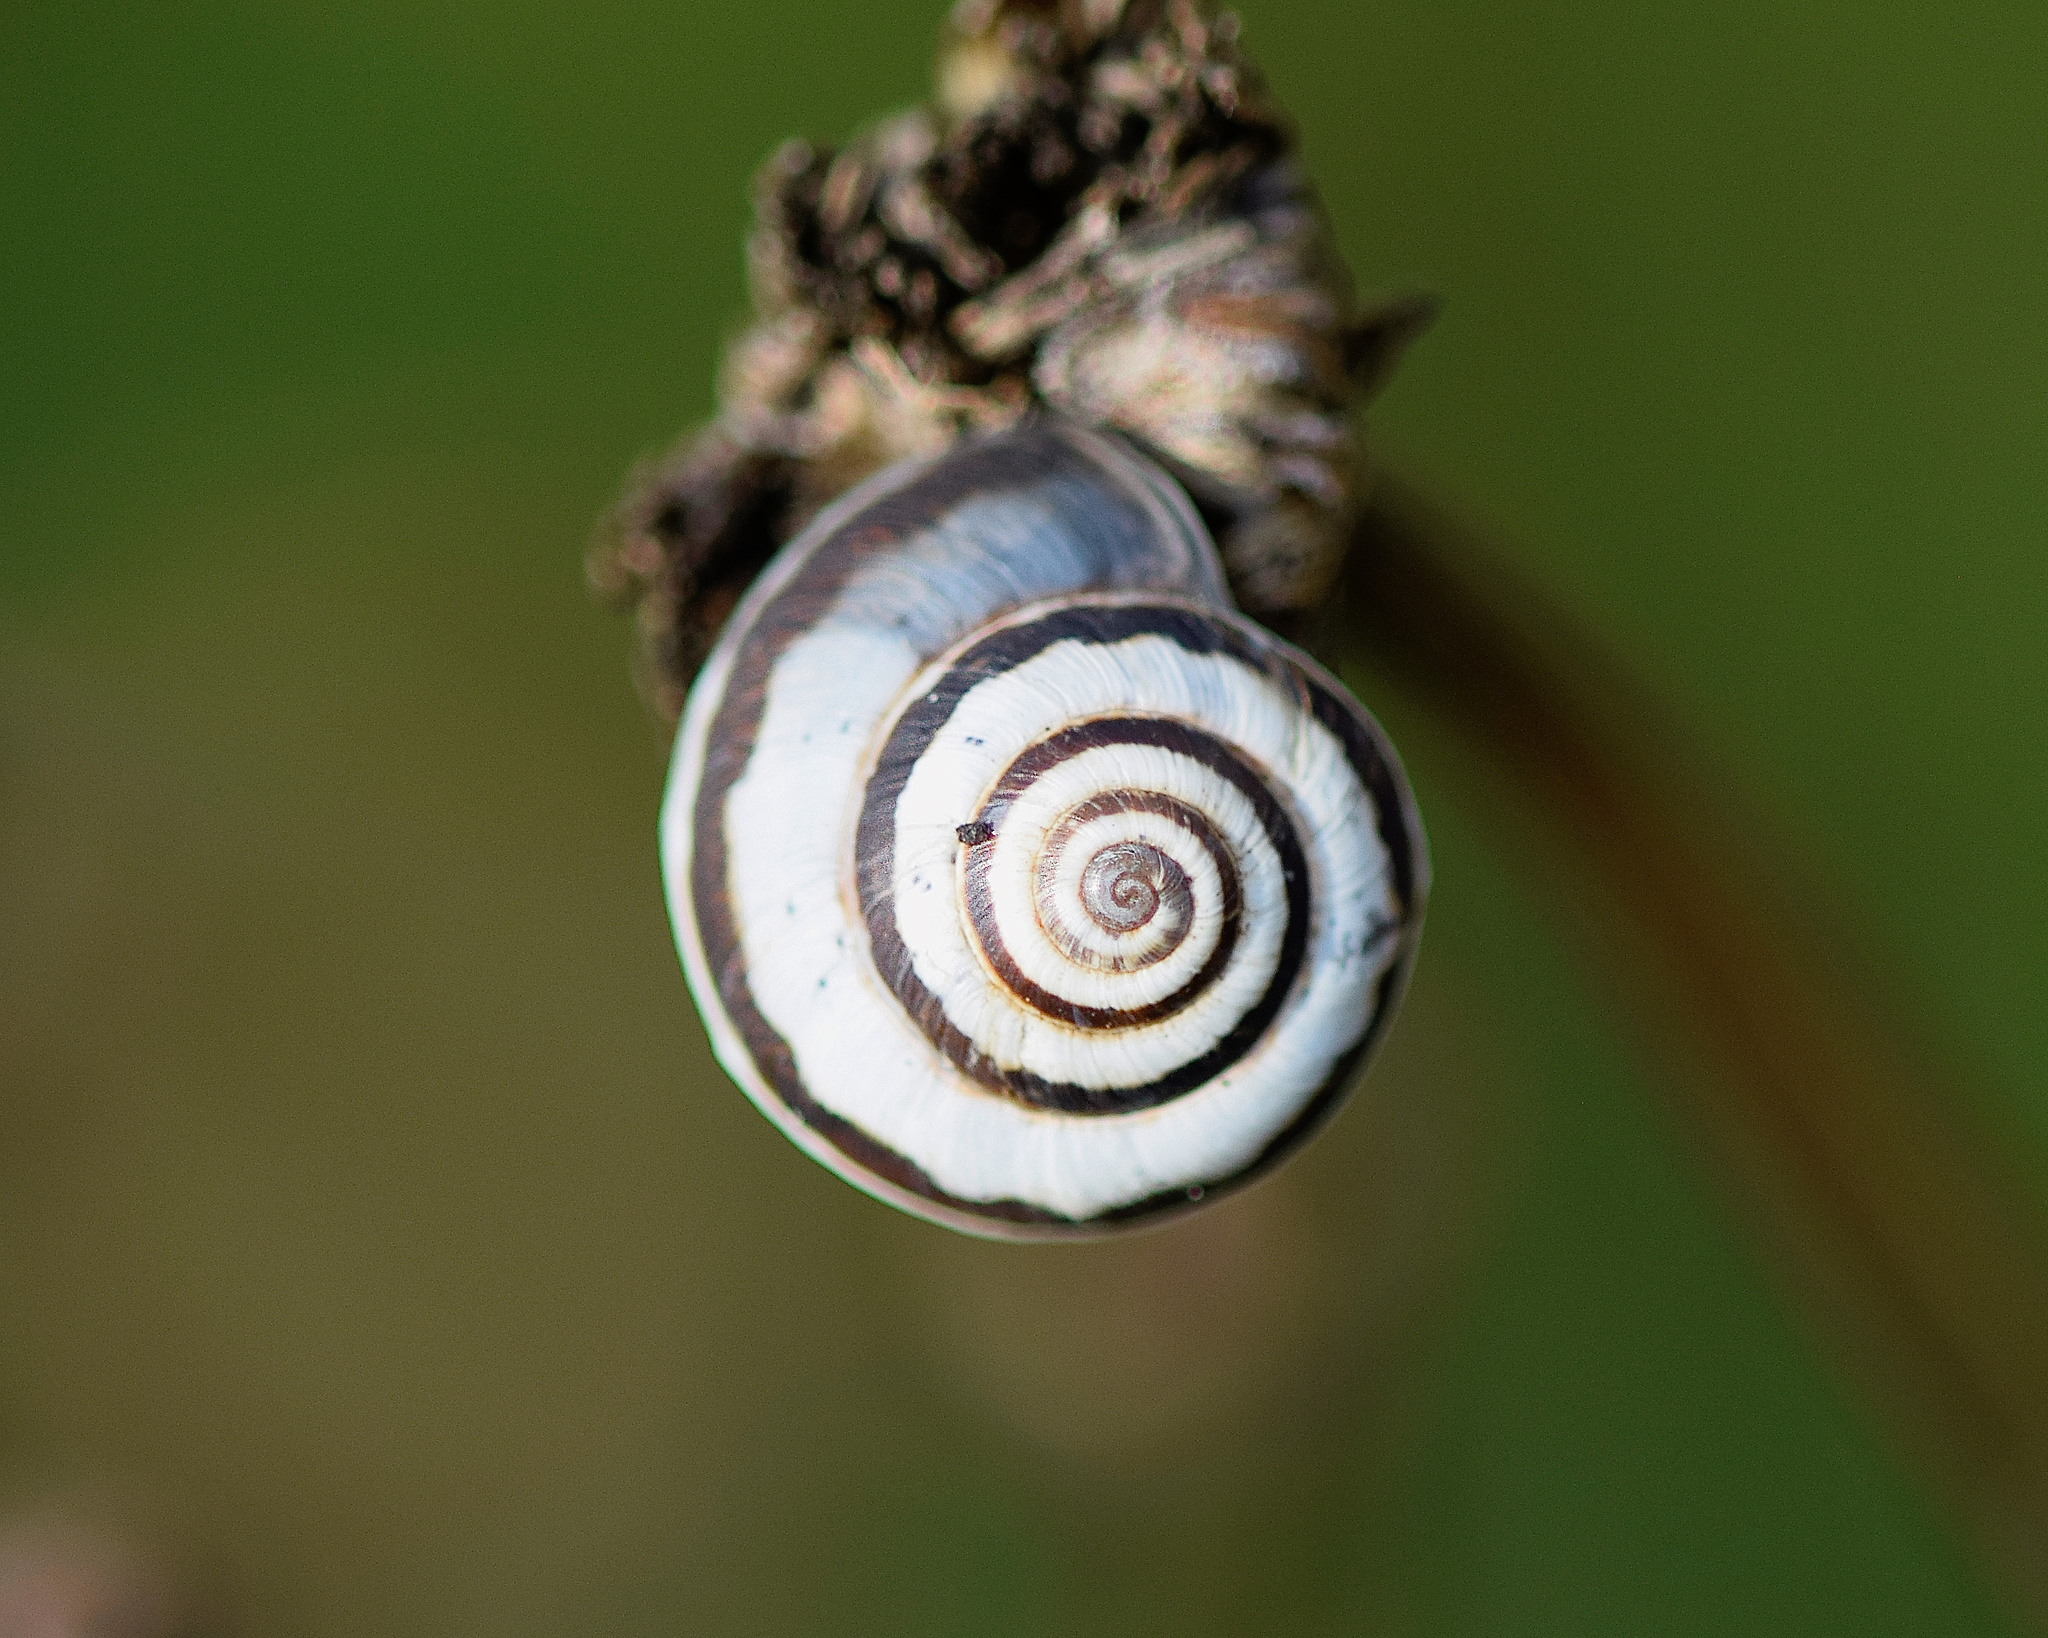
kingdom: Animalia
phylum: Mollusca
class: Gastropoda
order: Stylommatophora
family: Geomitridae
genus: Cernuella
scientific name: Cernuella virgata
